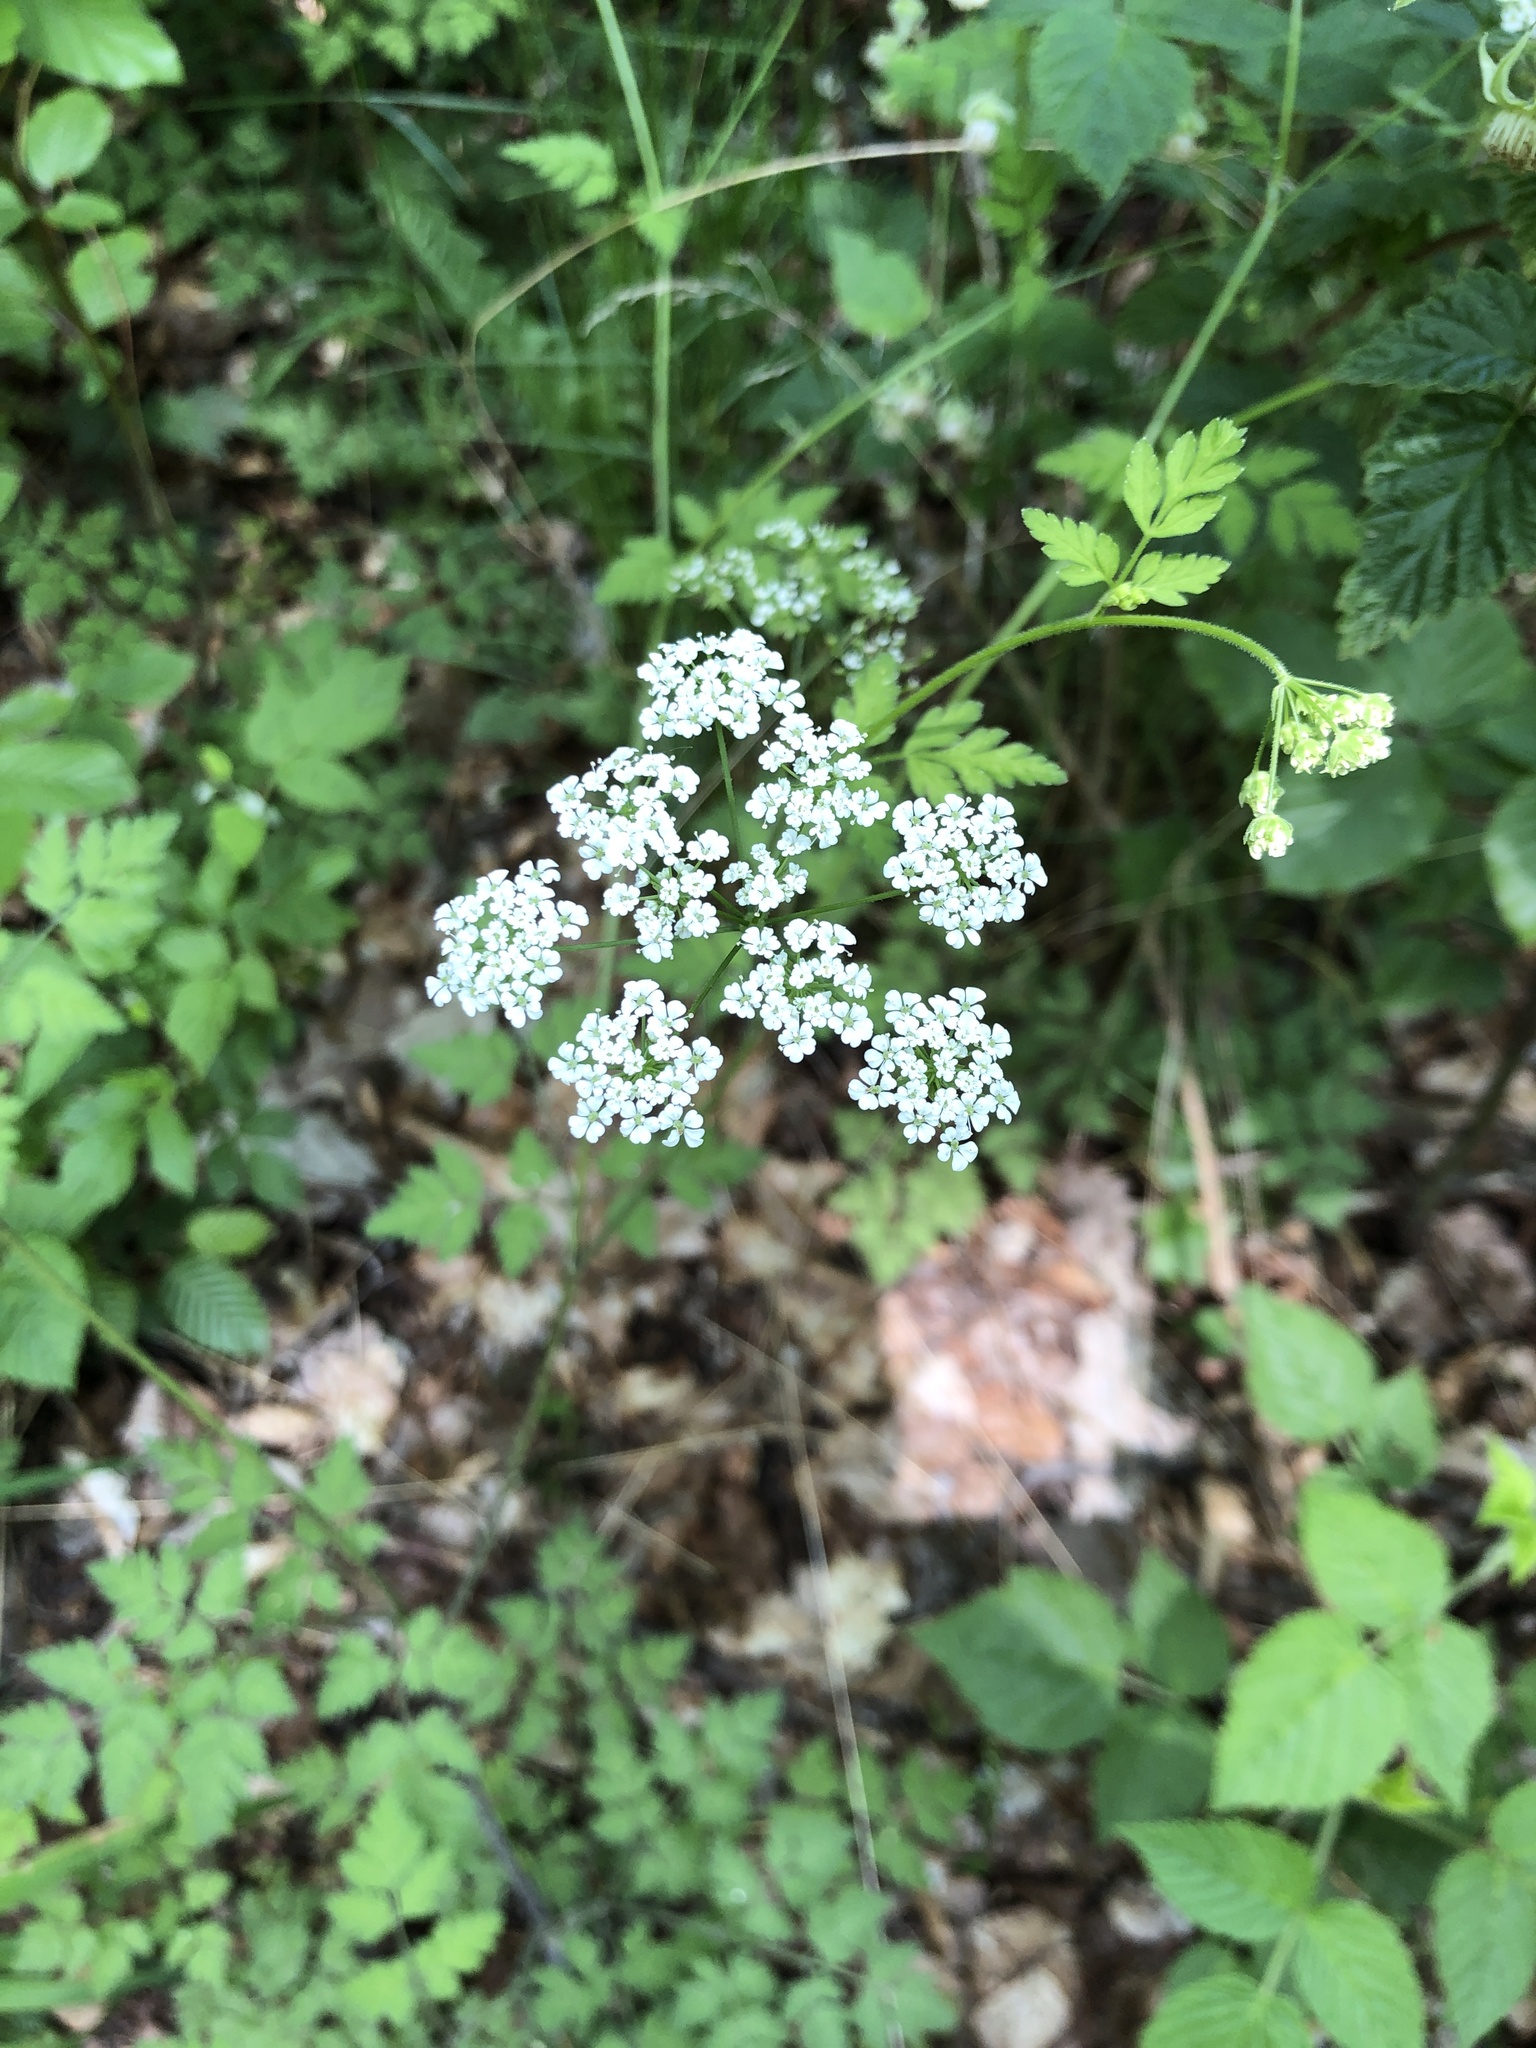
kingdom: Plantae
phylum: Tracheophyta
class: Magnoliopsida
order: Apiales
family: Apiaceae
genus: Chaerophyllum
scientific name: Chaerophyllum temulum
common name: Rough chervil
